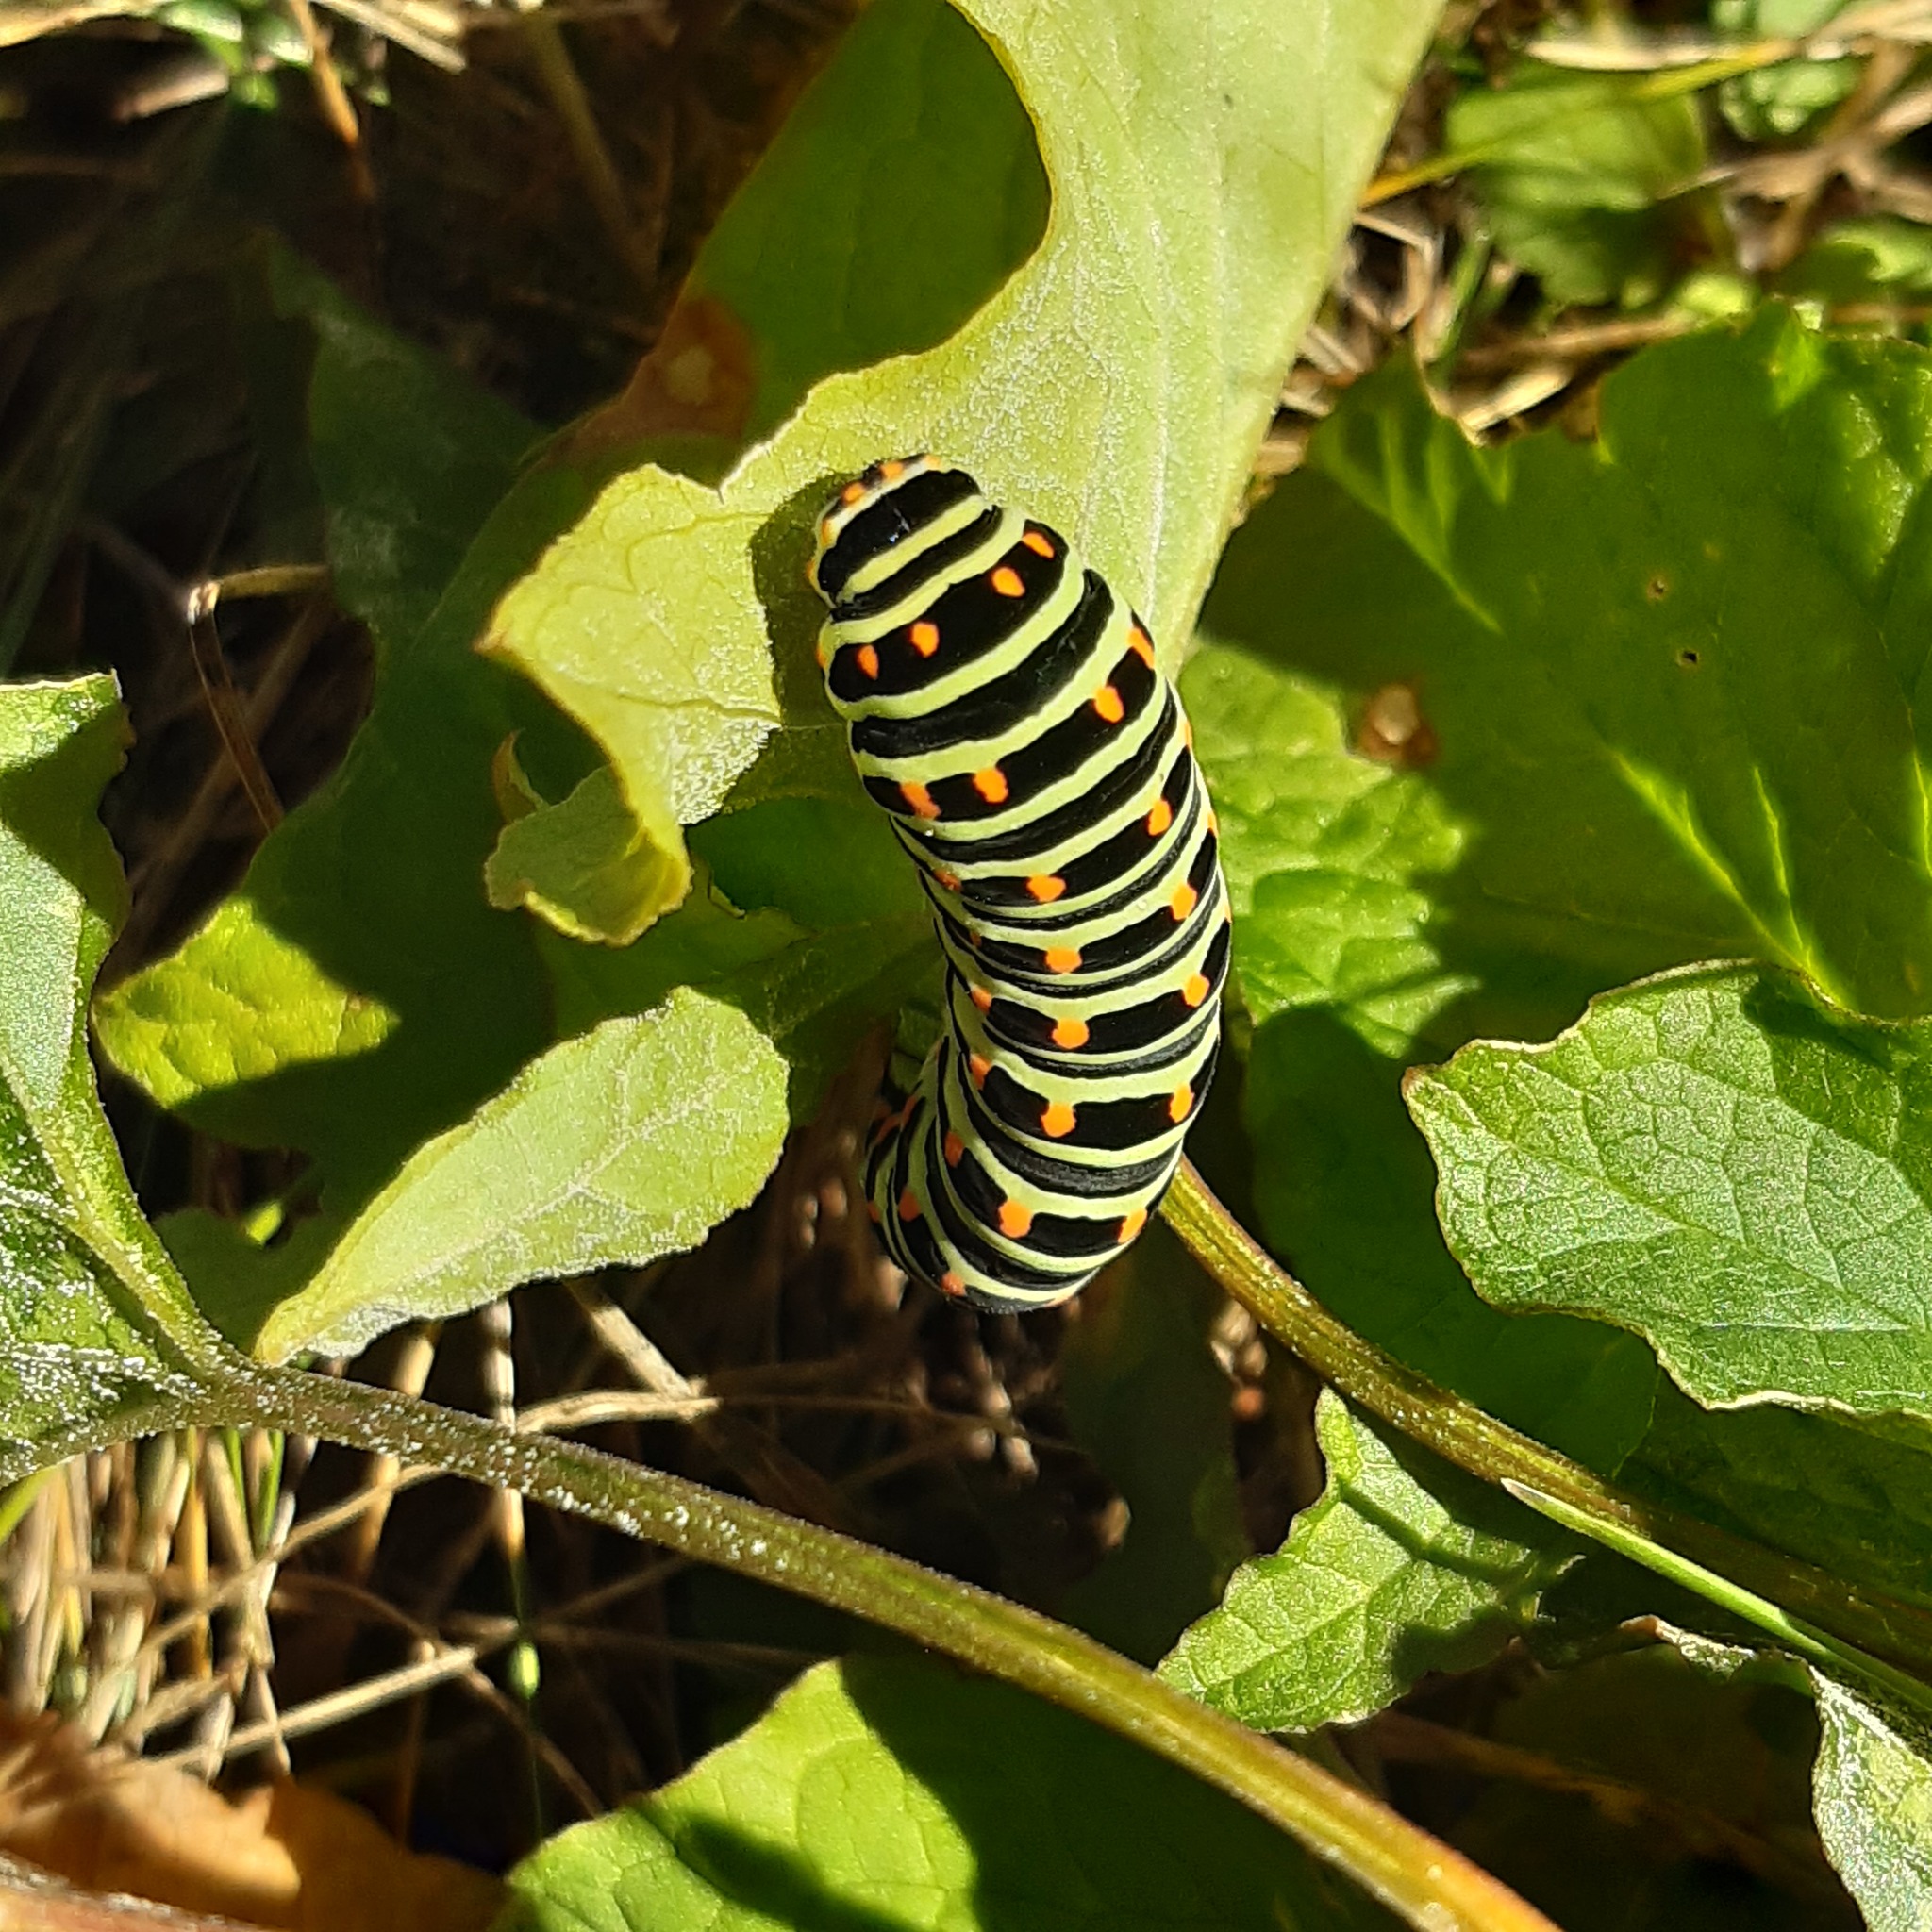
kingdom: Animalia
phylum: Arthropoda
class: Insecta
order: Lepidoptera
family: Papilionidae
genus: Papilio
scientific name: Papilio machaon
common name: Swallowtail
